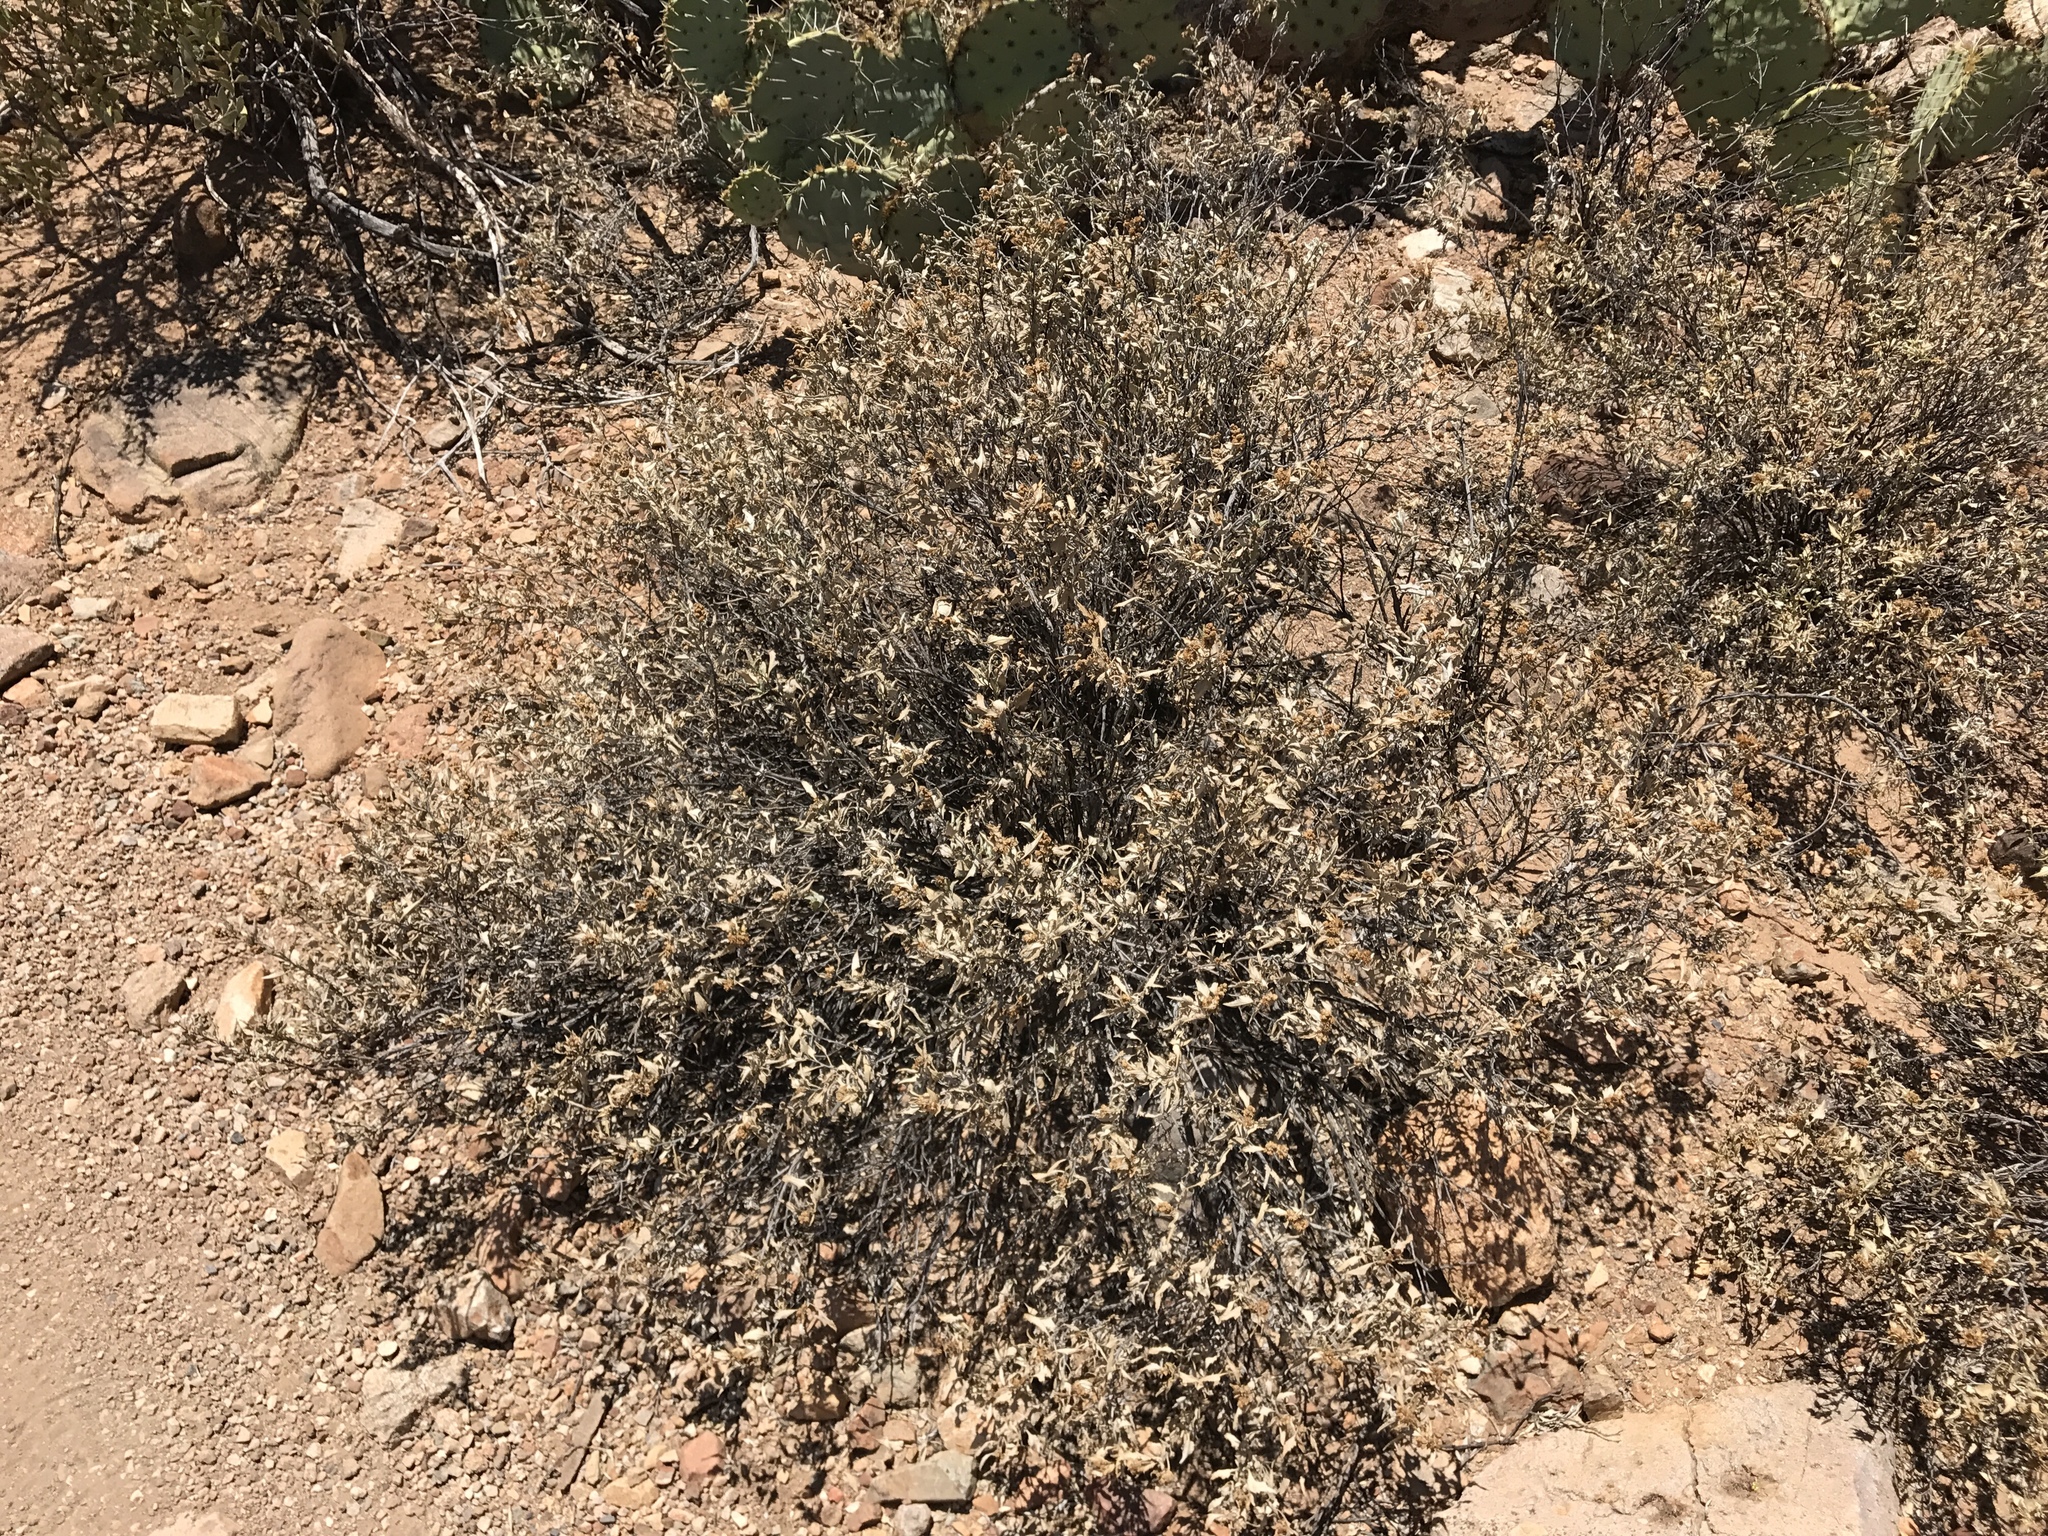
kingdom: Plantae
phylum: Tracheophyta
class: Magnoliopsida
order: Asterales
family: Asteraceae
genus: Ambrosia
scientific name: Ambrosia deltoidea
